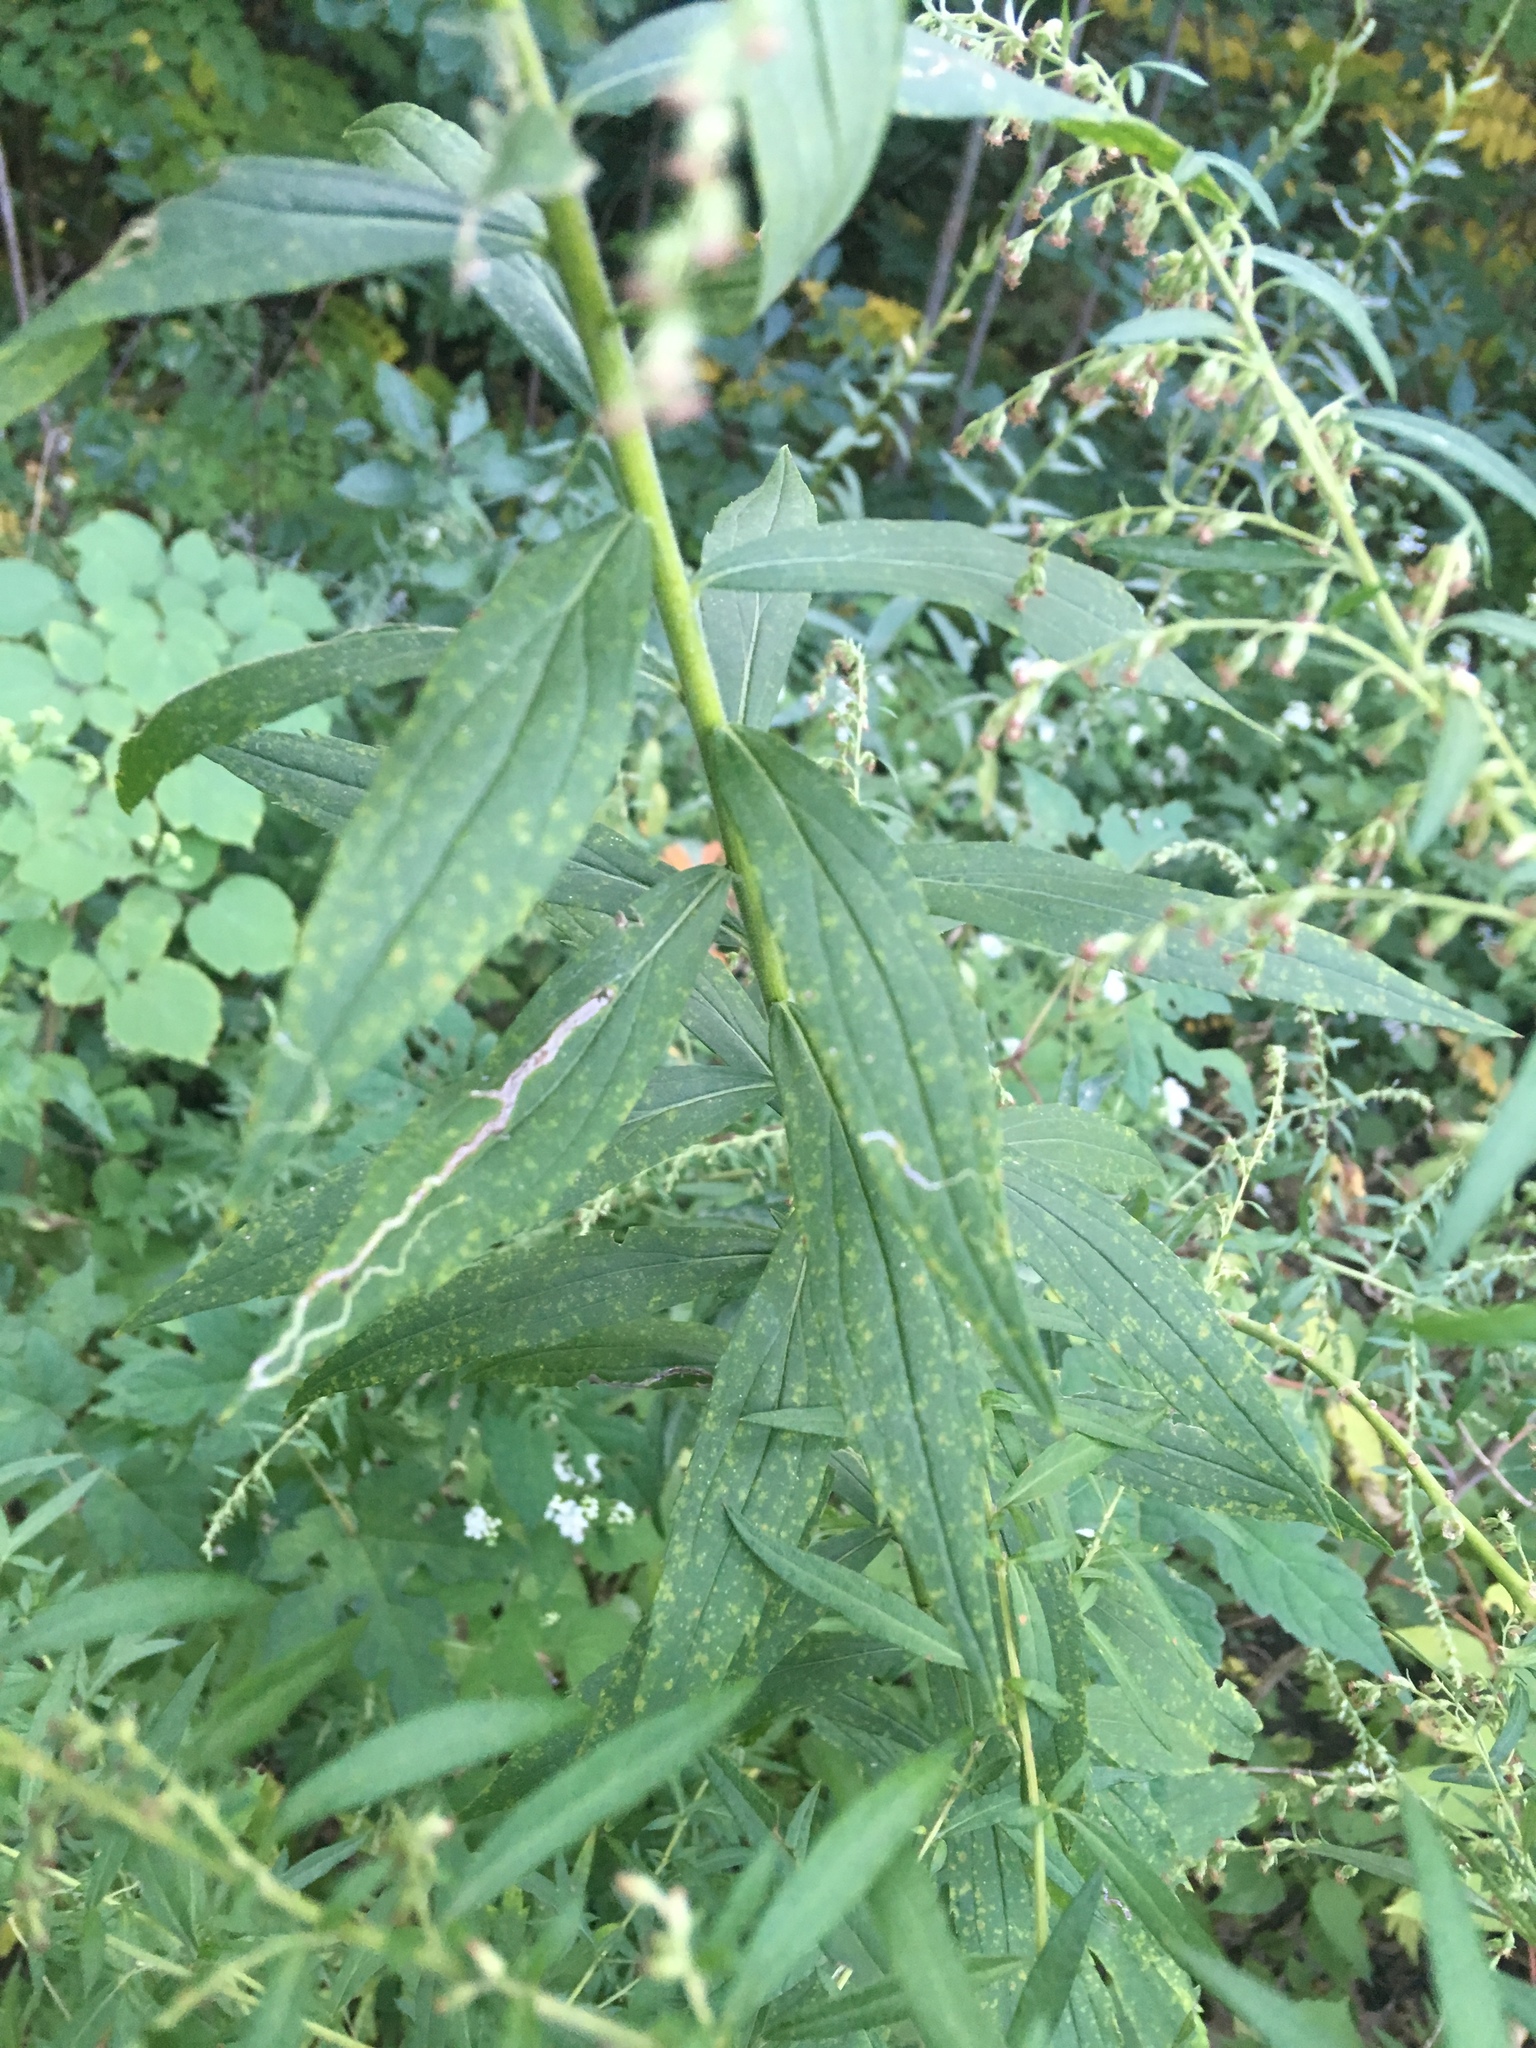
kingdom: Plantae
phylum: Tracheophyta
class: Magnoliopsida
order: Asterales
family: Asteraceae
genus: Solidago
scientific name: Solidago altissima
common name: Late goldenrod
